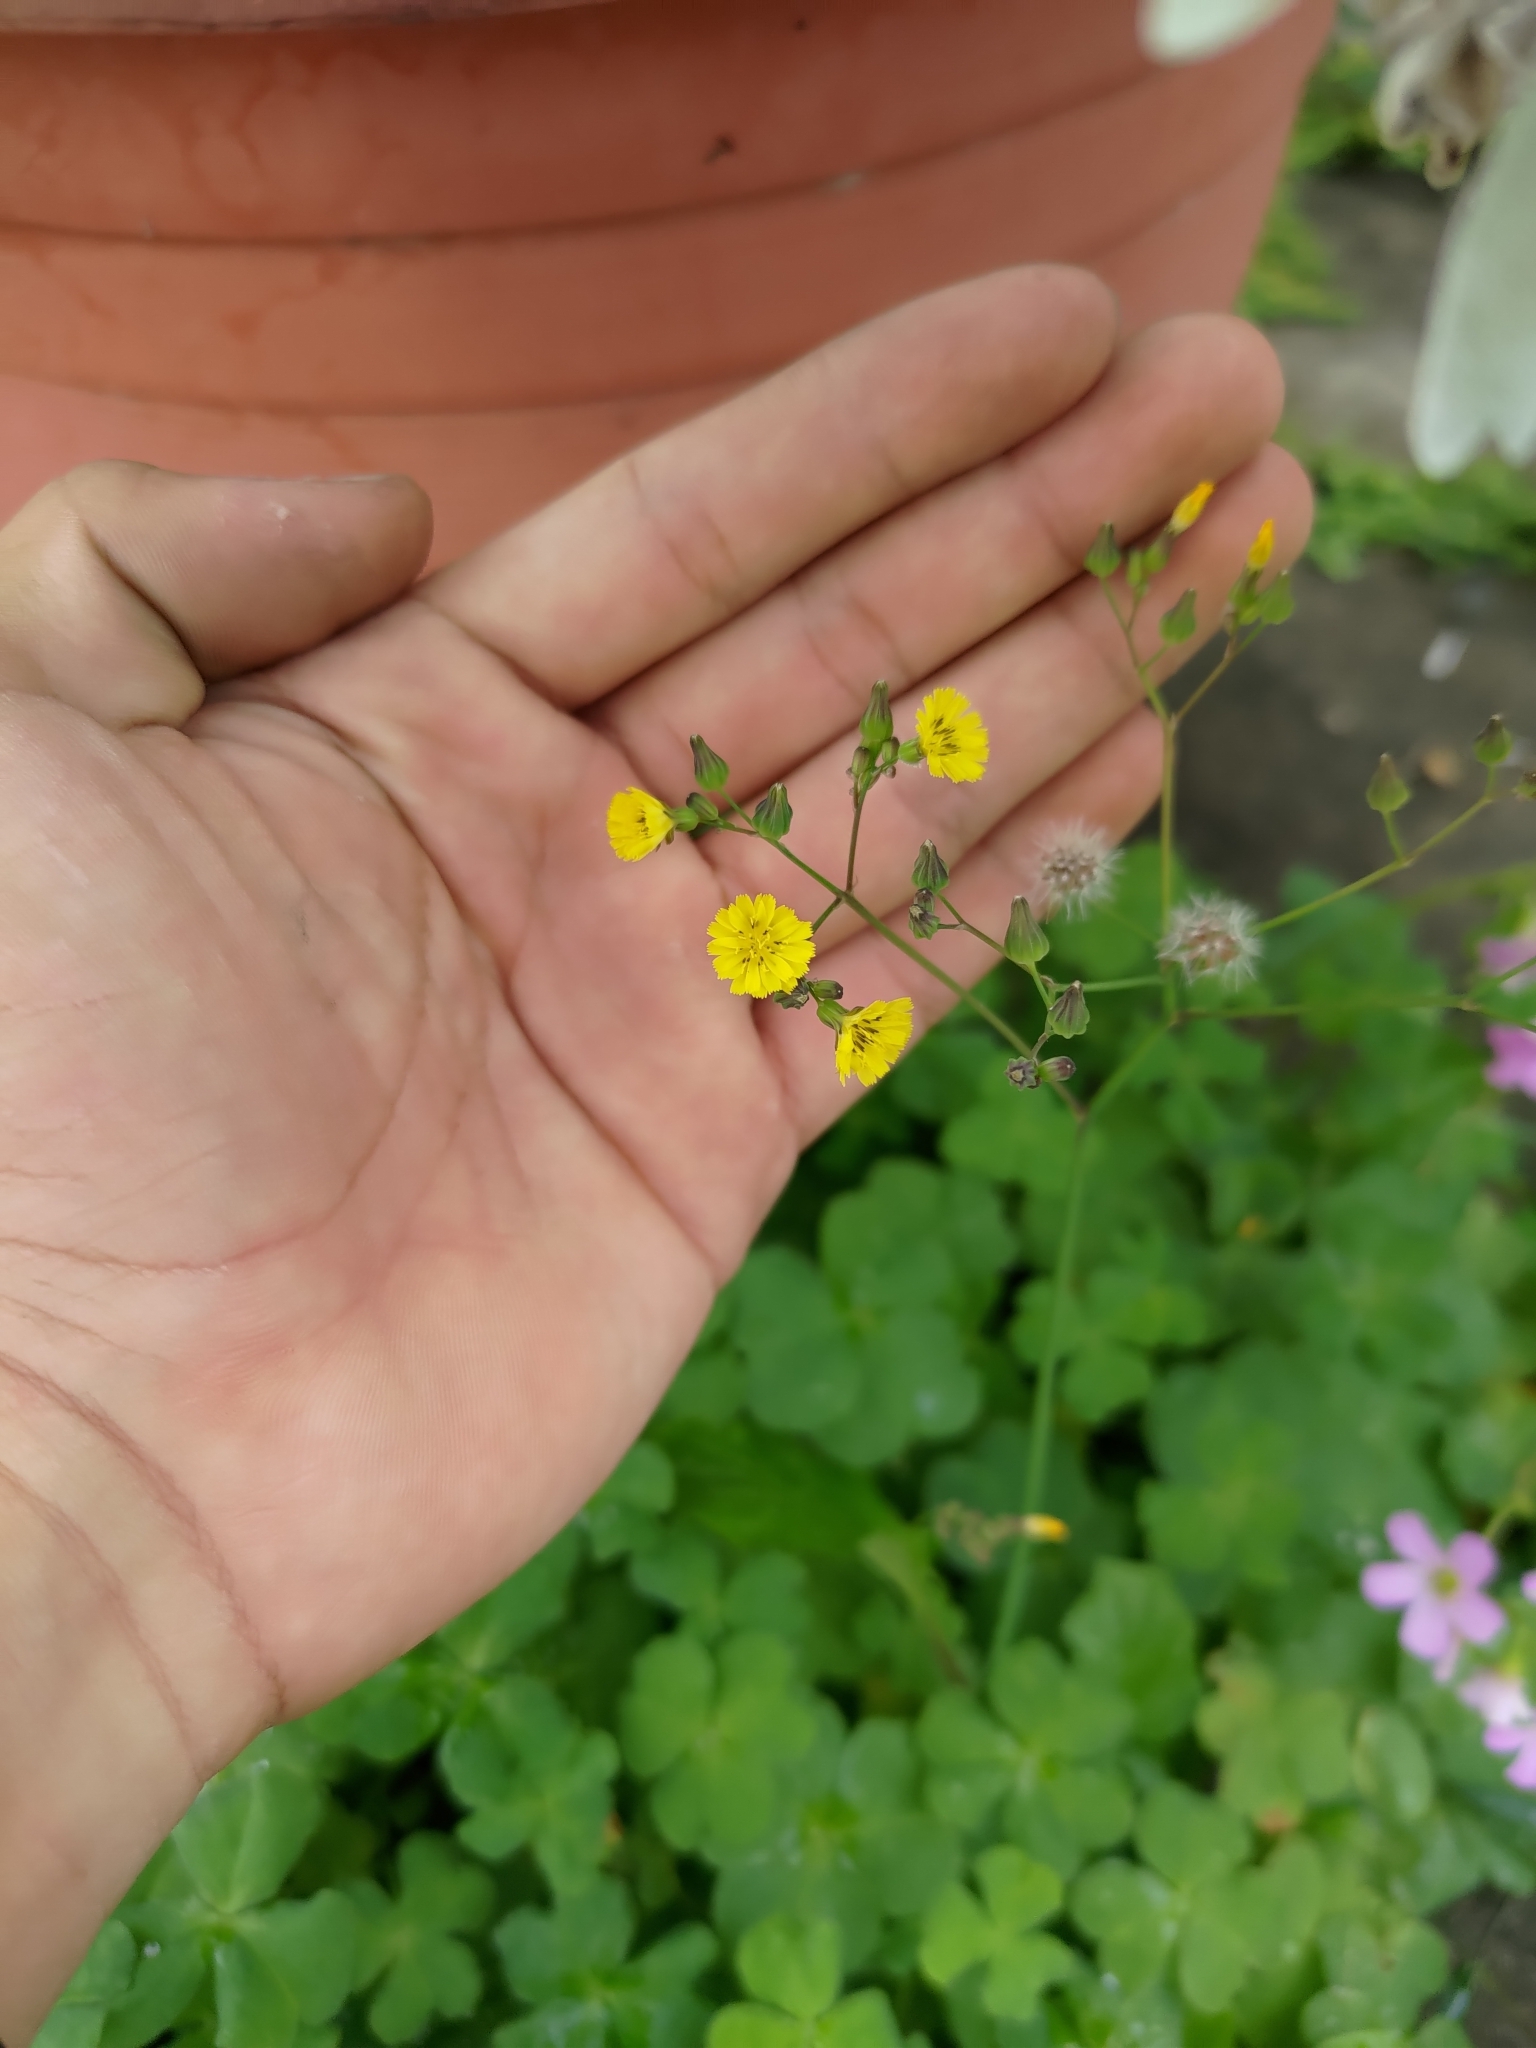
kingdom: Plantae
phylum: Tracheophyta
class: Magnoliopsida
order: Asterales
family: Asteraceae
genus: Youngia
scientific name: Youngia japonica
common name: Oriental false hawksbeard
